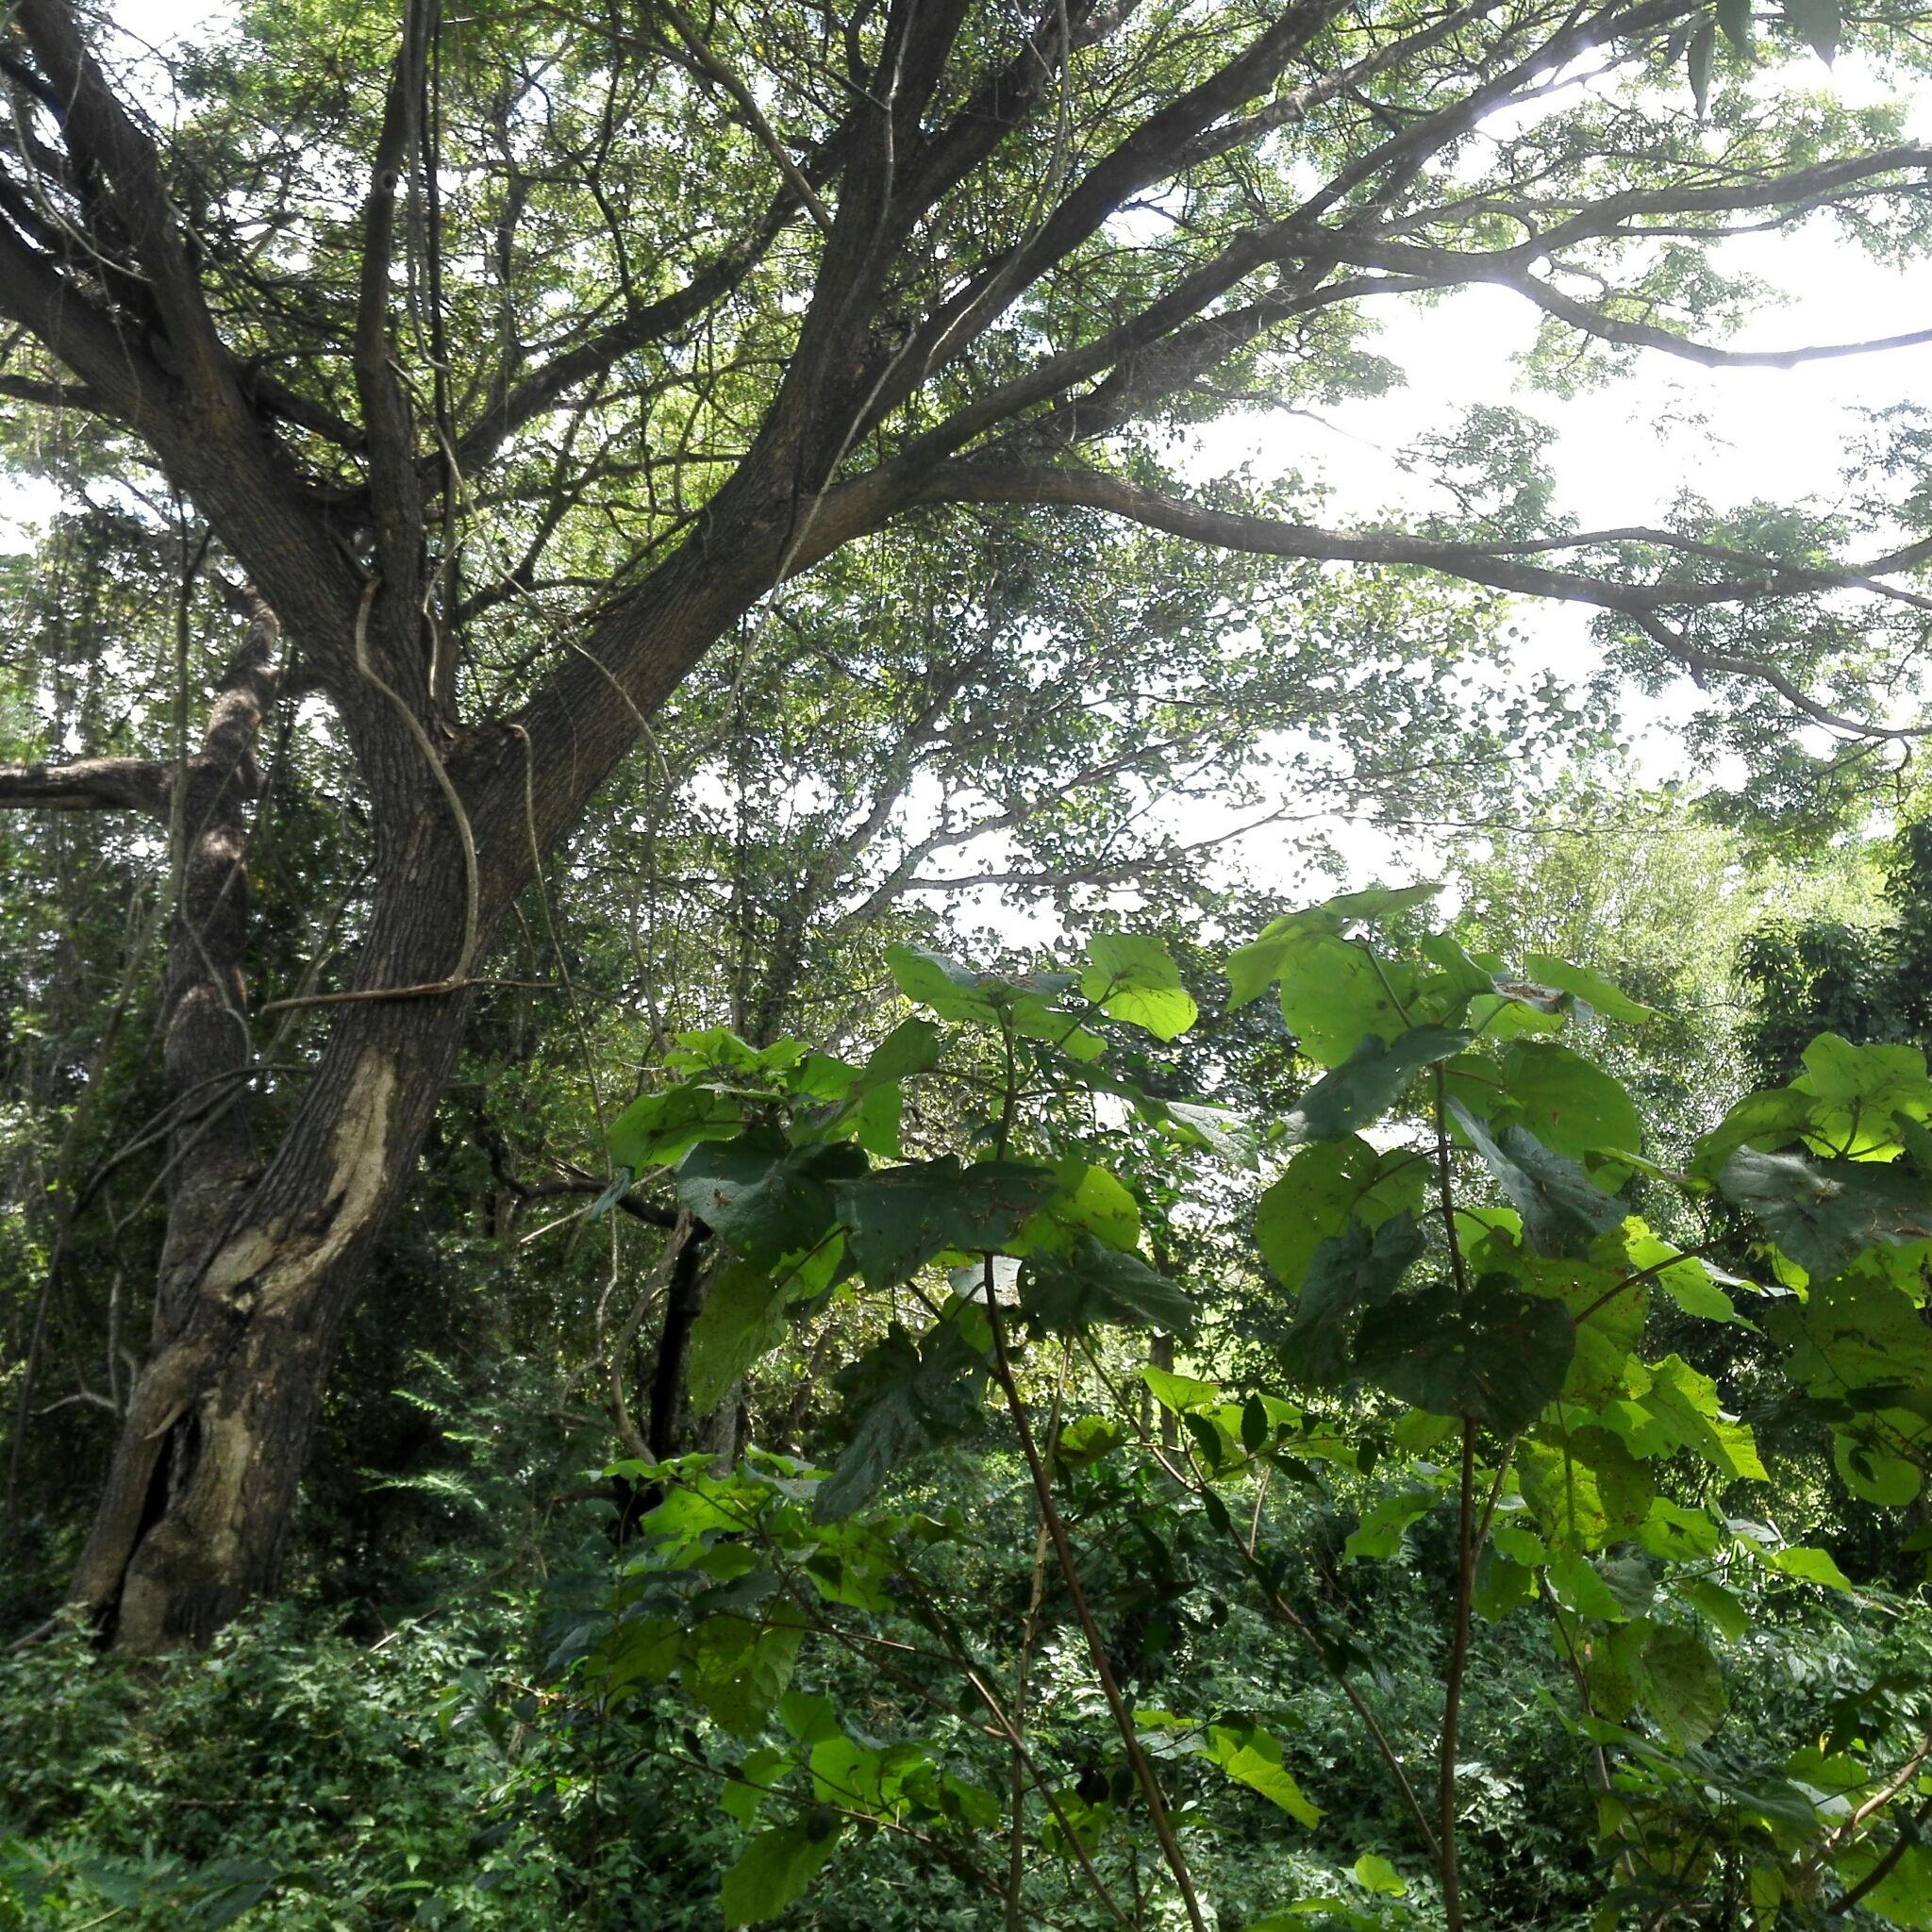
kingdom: Animalia
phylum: Chordata
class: Mammalia
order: Rodentia
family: Sciuridae
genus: Ratufa
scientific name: Ratufa macroura
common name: Sri lankan giant squirrel
